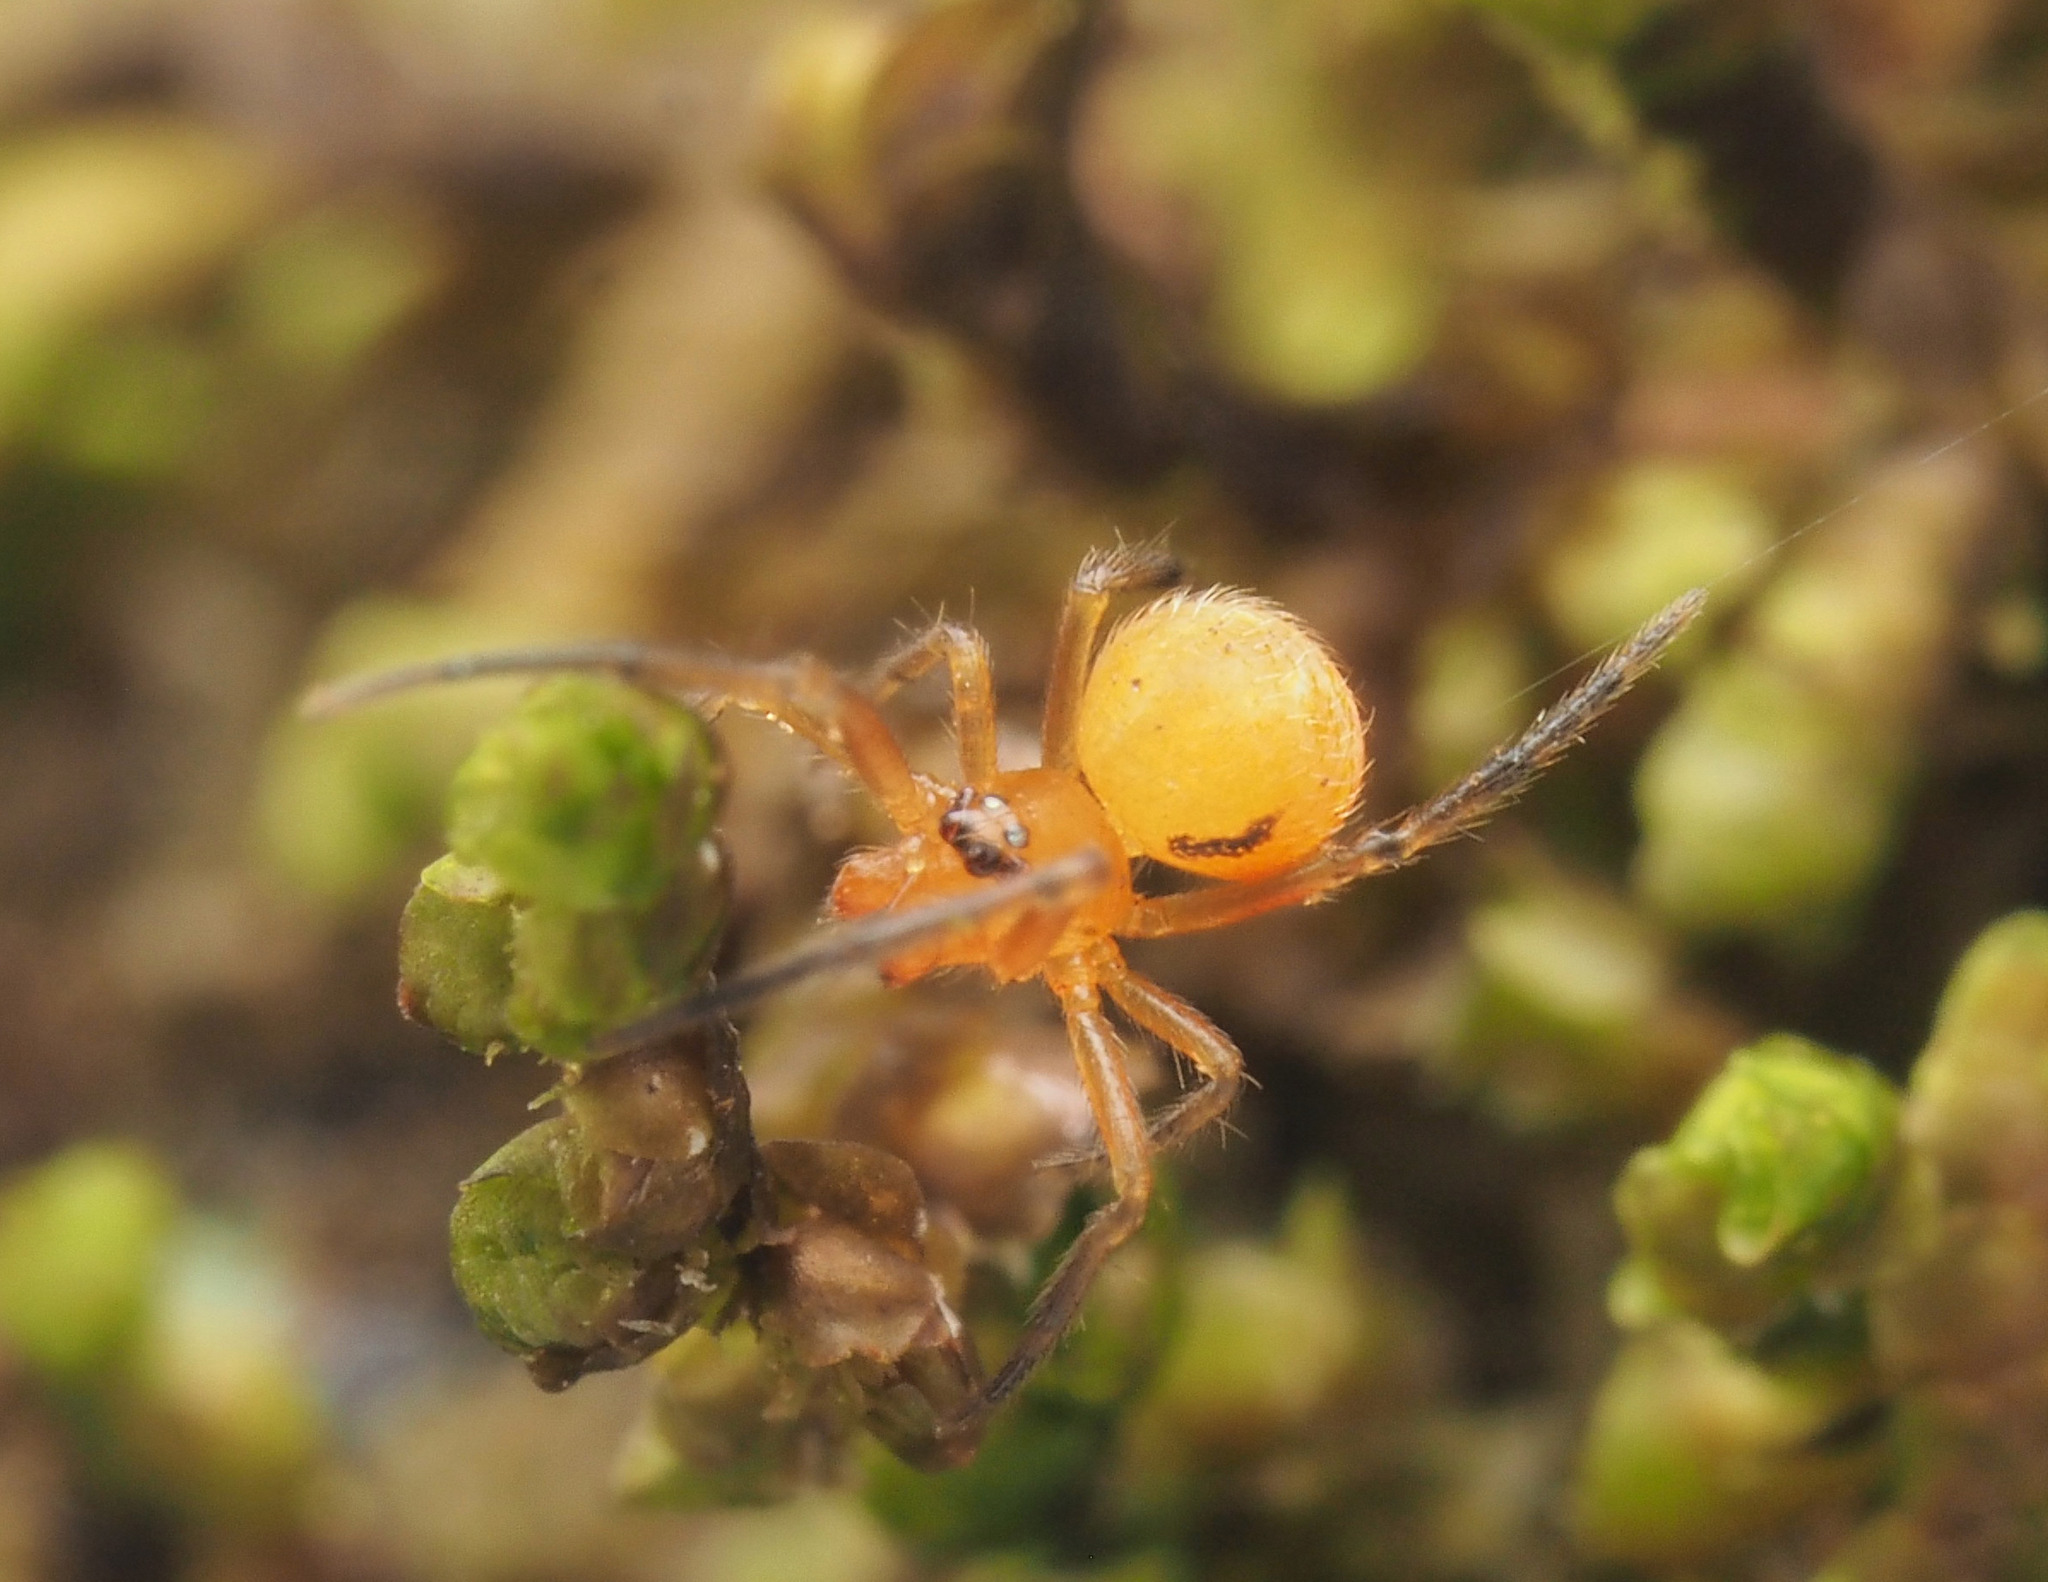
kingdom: Animalia
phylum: Arthropoda
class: Arachnida
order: Araneae
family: Theridiidae
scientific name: Theridiidae
